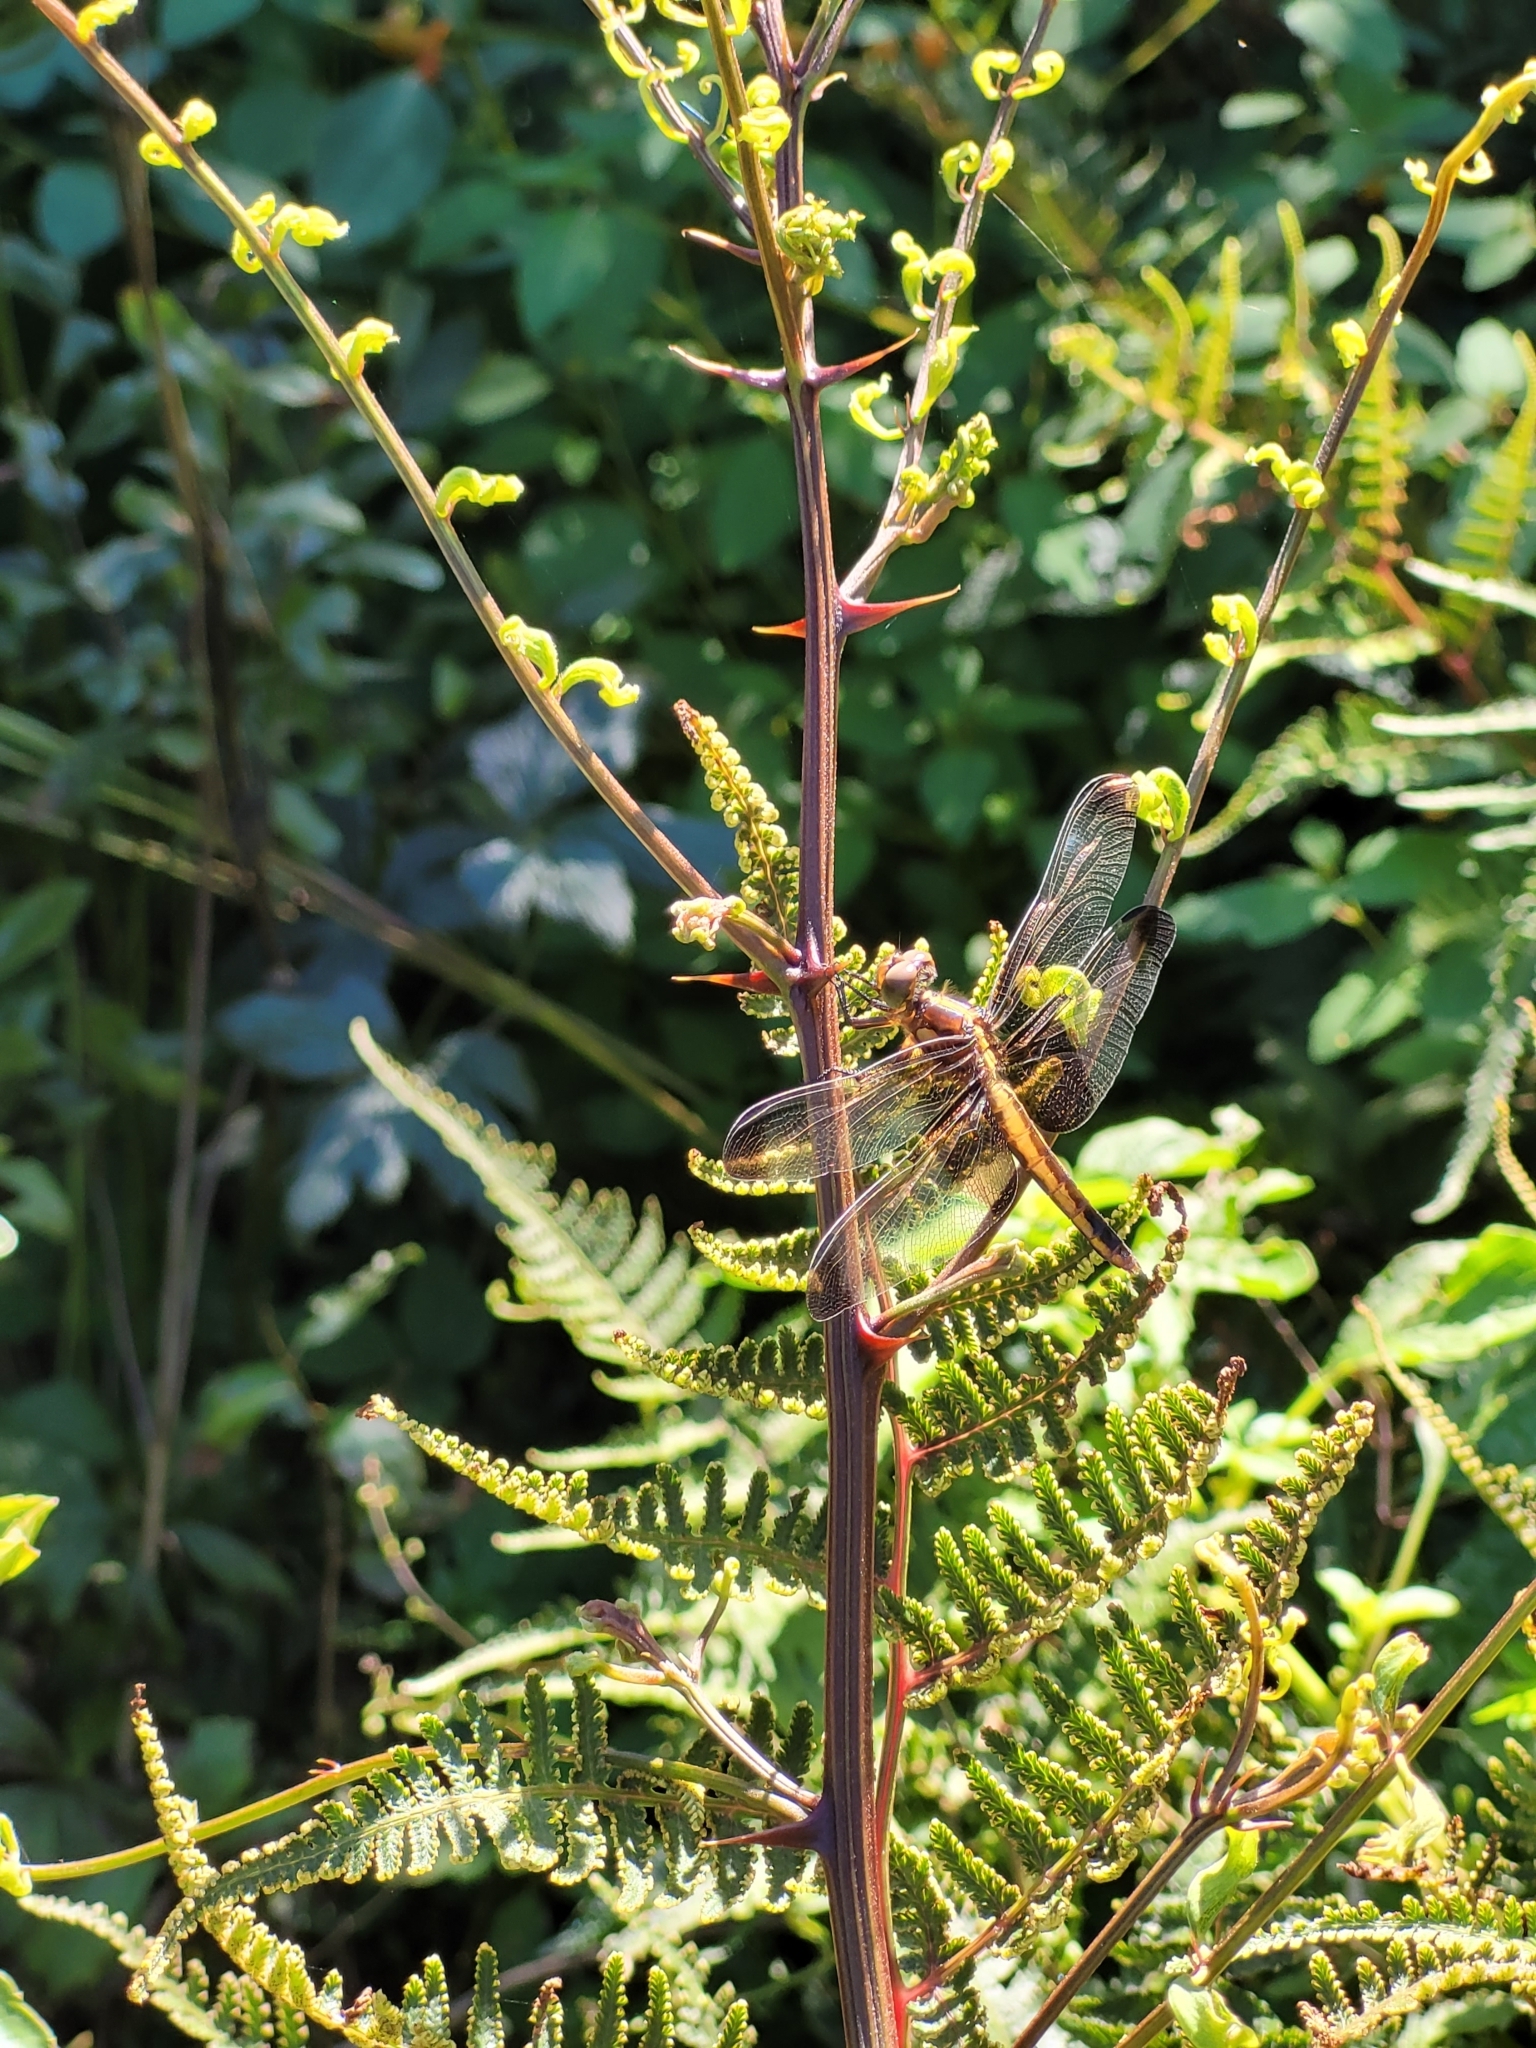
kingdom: Animalia
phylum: Arthropoda
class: Insecta
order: Odonata
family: Libellulidae
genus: Libellula
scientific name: Libellula luctuosa
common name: Widow skimmer
